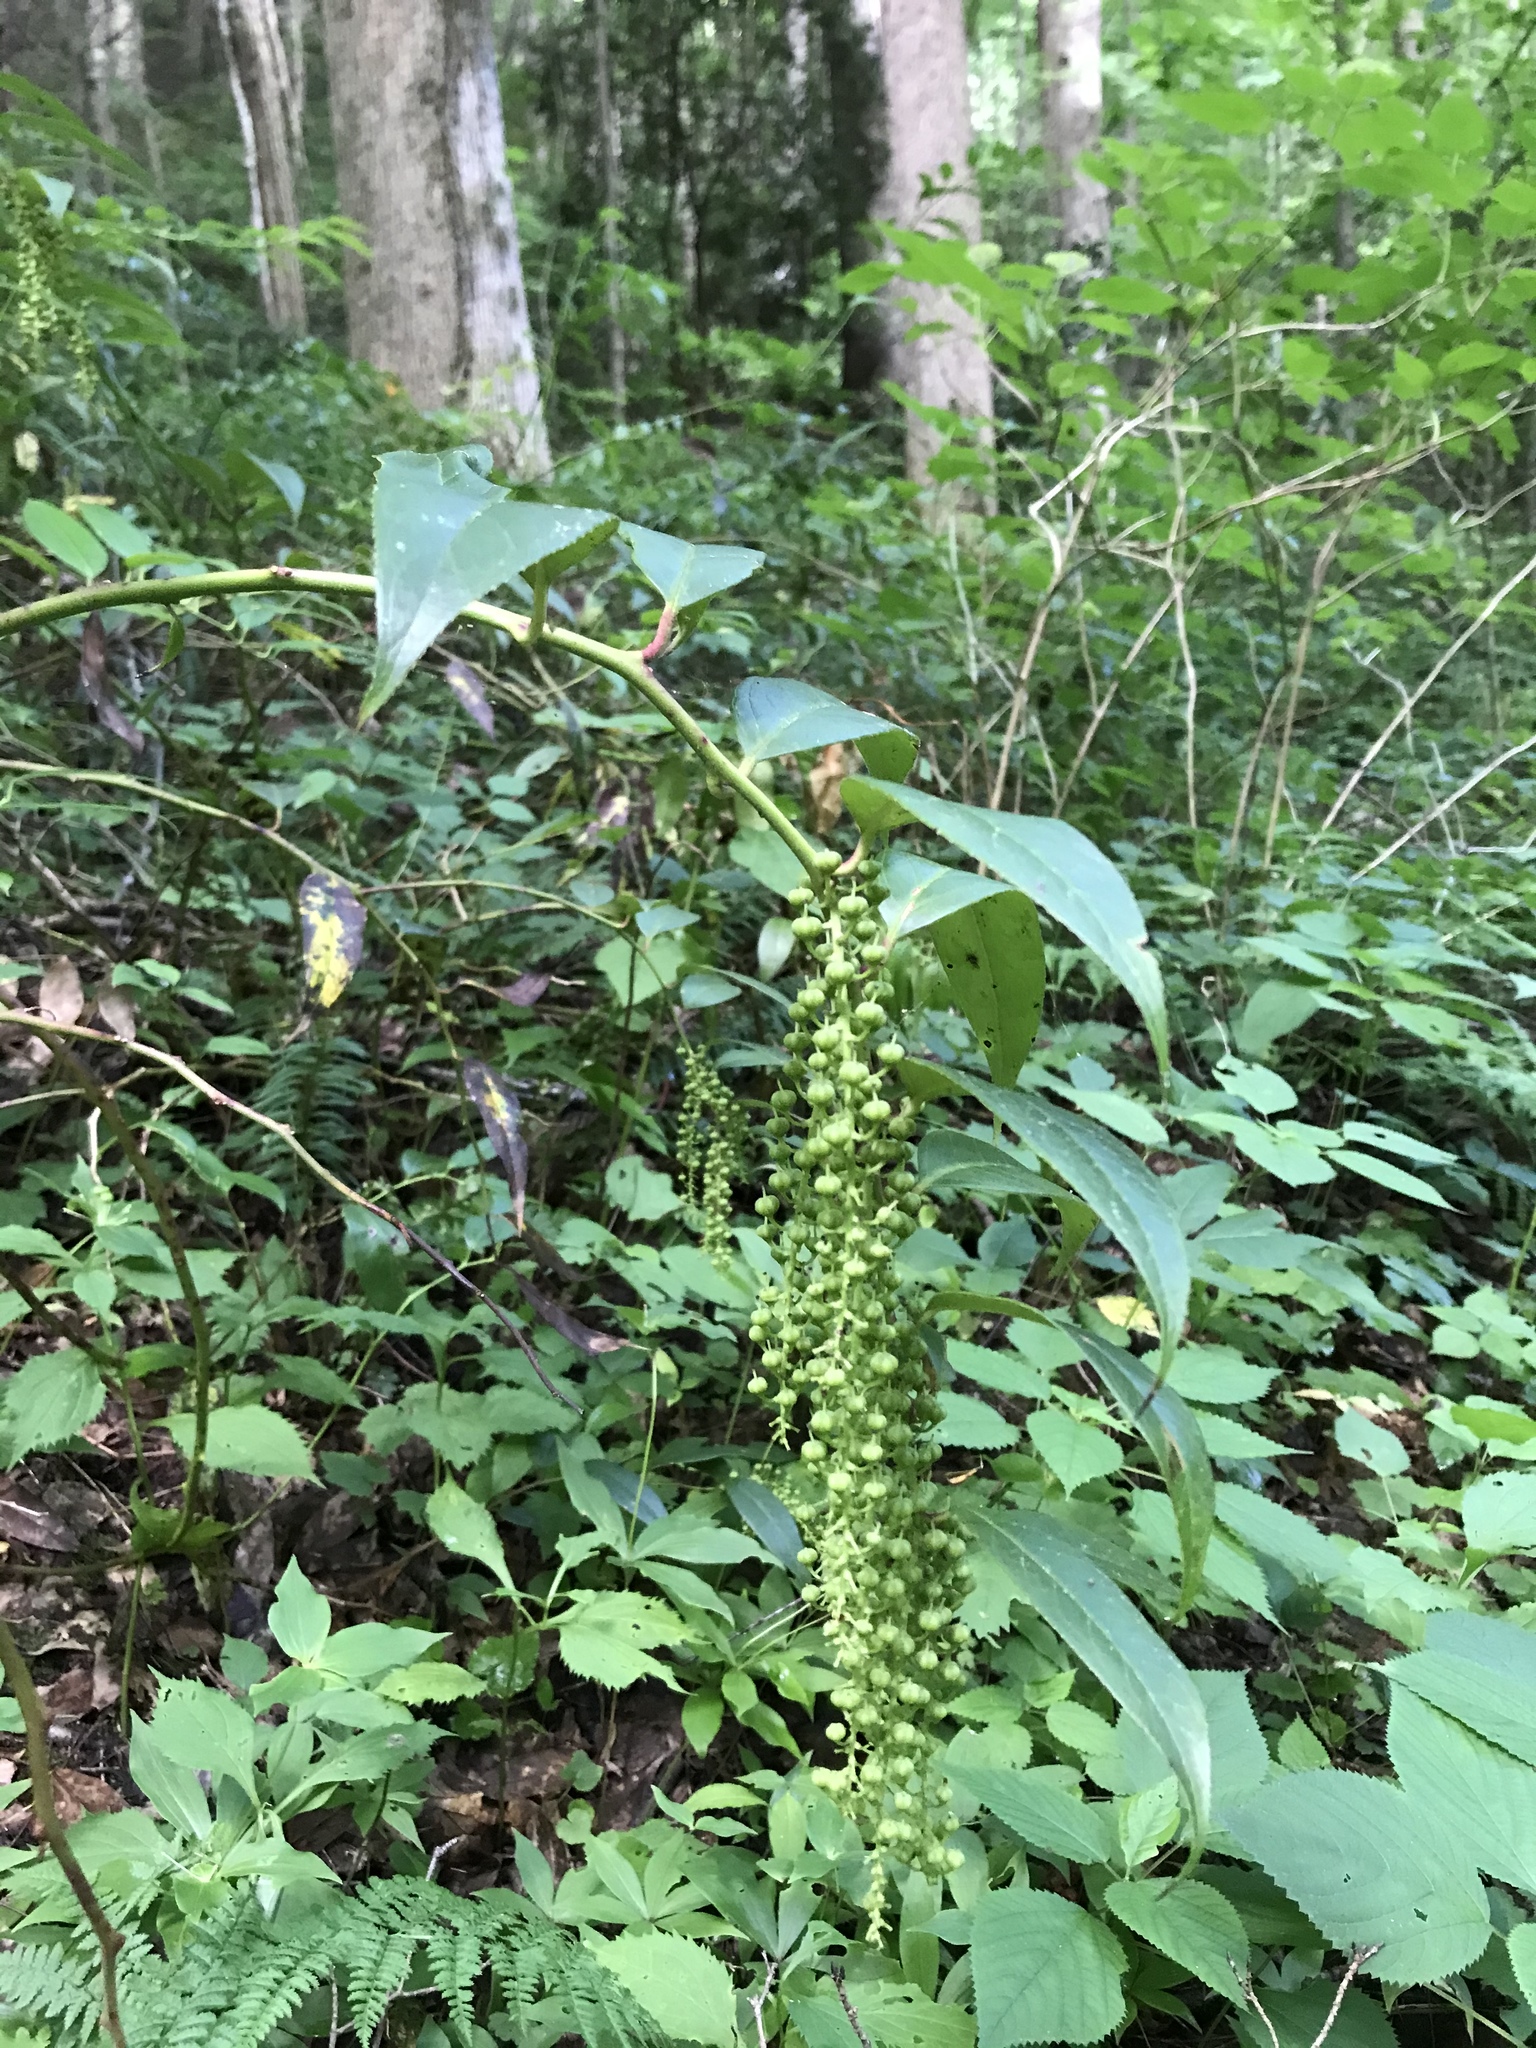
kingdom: Plantae
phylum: Tracheophyta
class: Magnoliopsida
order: Ericales
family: Ericaceae
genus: Leucothoe
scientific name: Leucothoe fontanesiana
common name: Fetterbush
